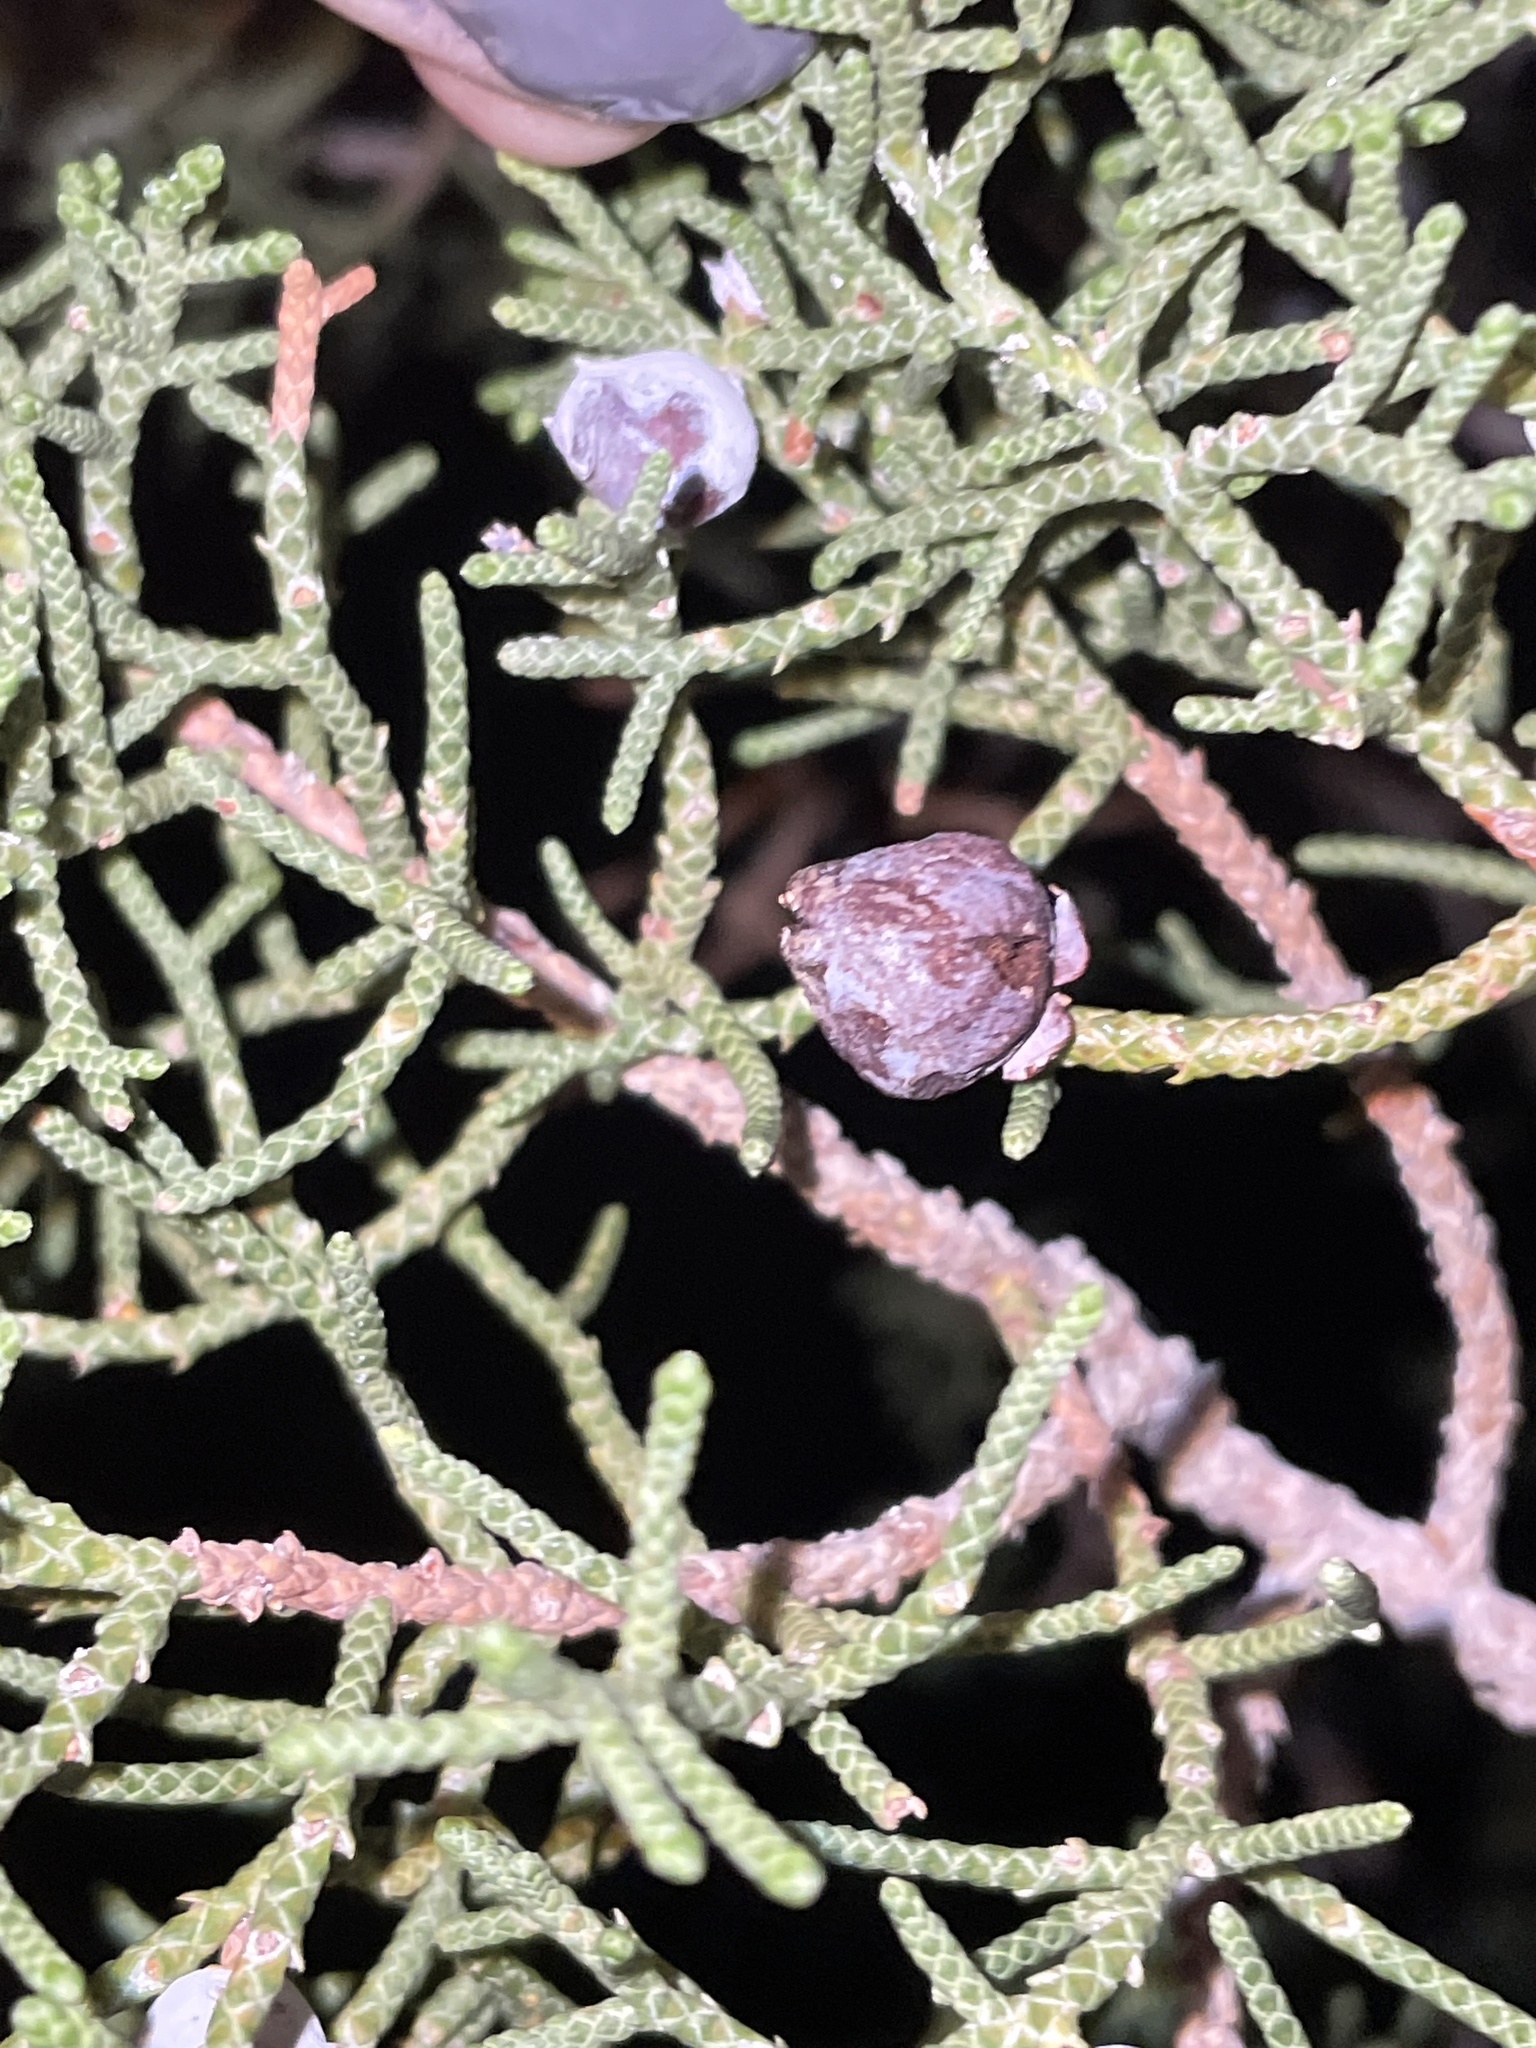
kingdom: Plantae
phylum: Tracheophyta
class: Pinopsida
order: Pinales
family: Cupressaceae
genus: Juniperus
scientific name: Juniperus californica
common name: California juniper
